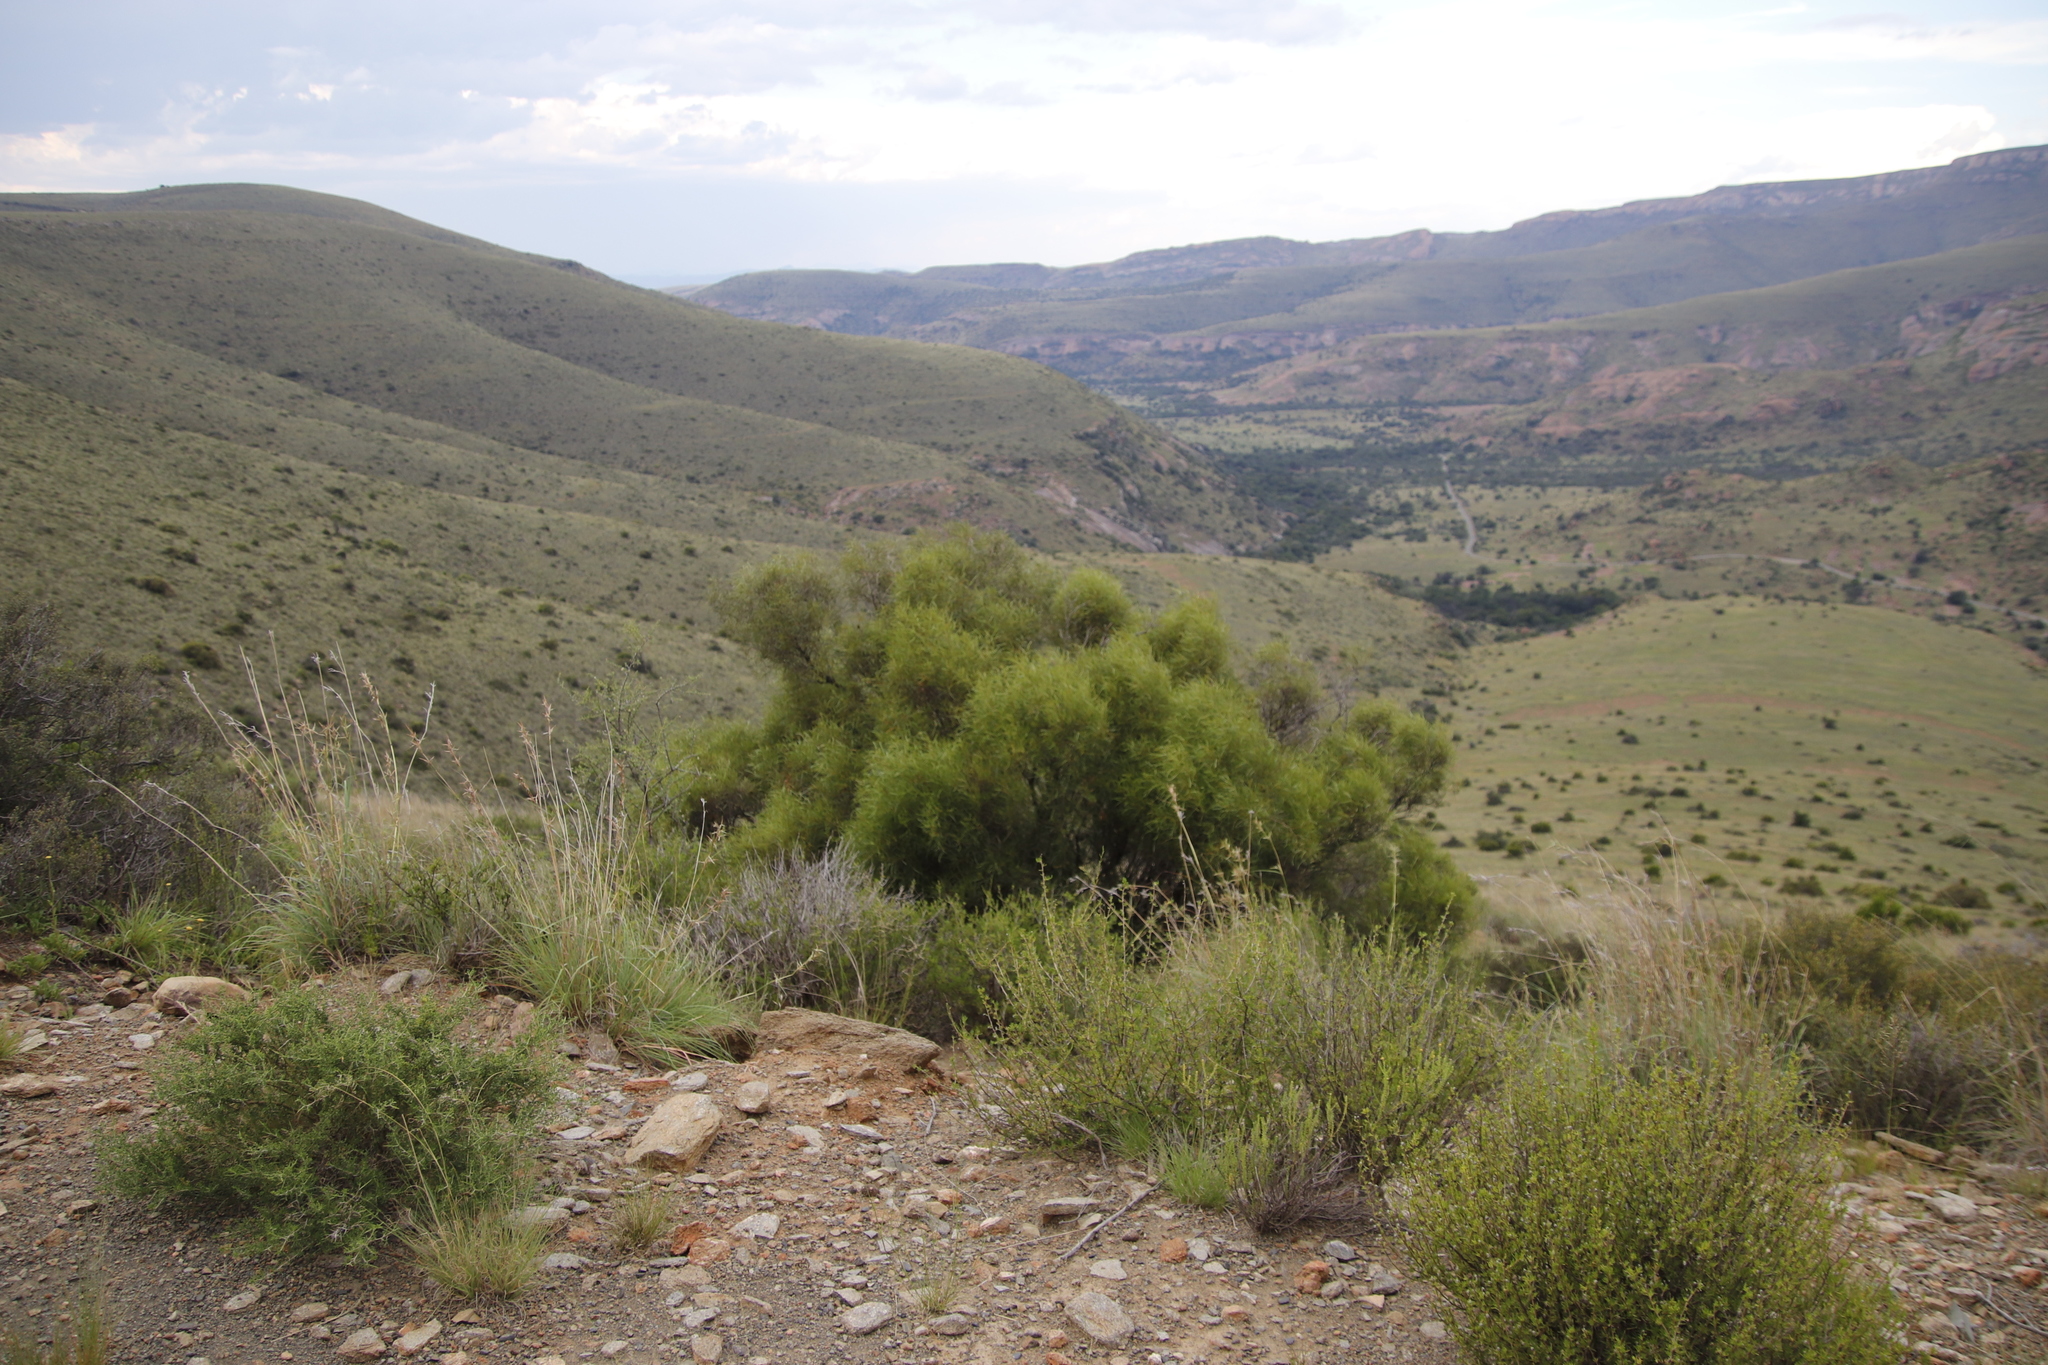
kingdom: Plantae
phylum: Tracheophyta
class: Magnoliopsida
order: Sapindales
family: Anacardiaceae
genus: Searsia
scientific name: Searsia erosa
